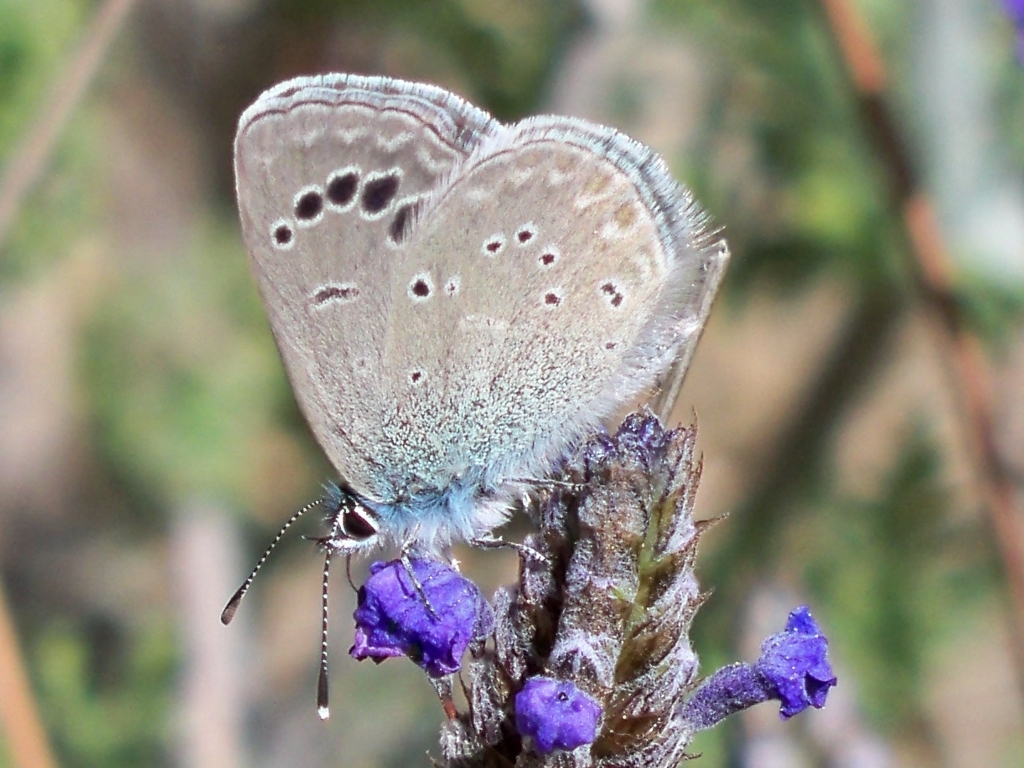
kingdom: Animalia
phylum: Arthropoda
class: Insecta
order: Lepidoptera
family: Lycaenidae
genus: Glaucopsyche
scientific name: Glaucopsyche melanops
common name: Black-eyed blue
